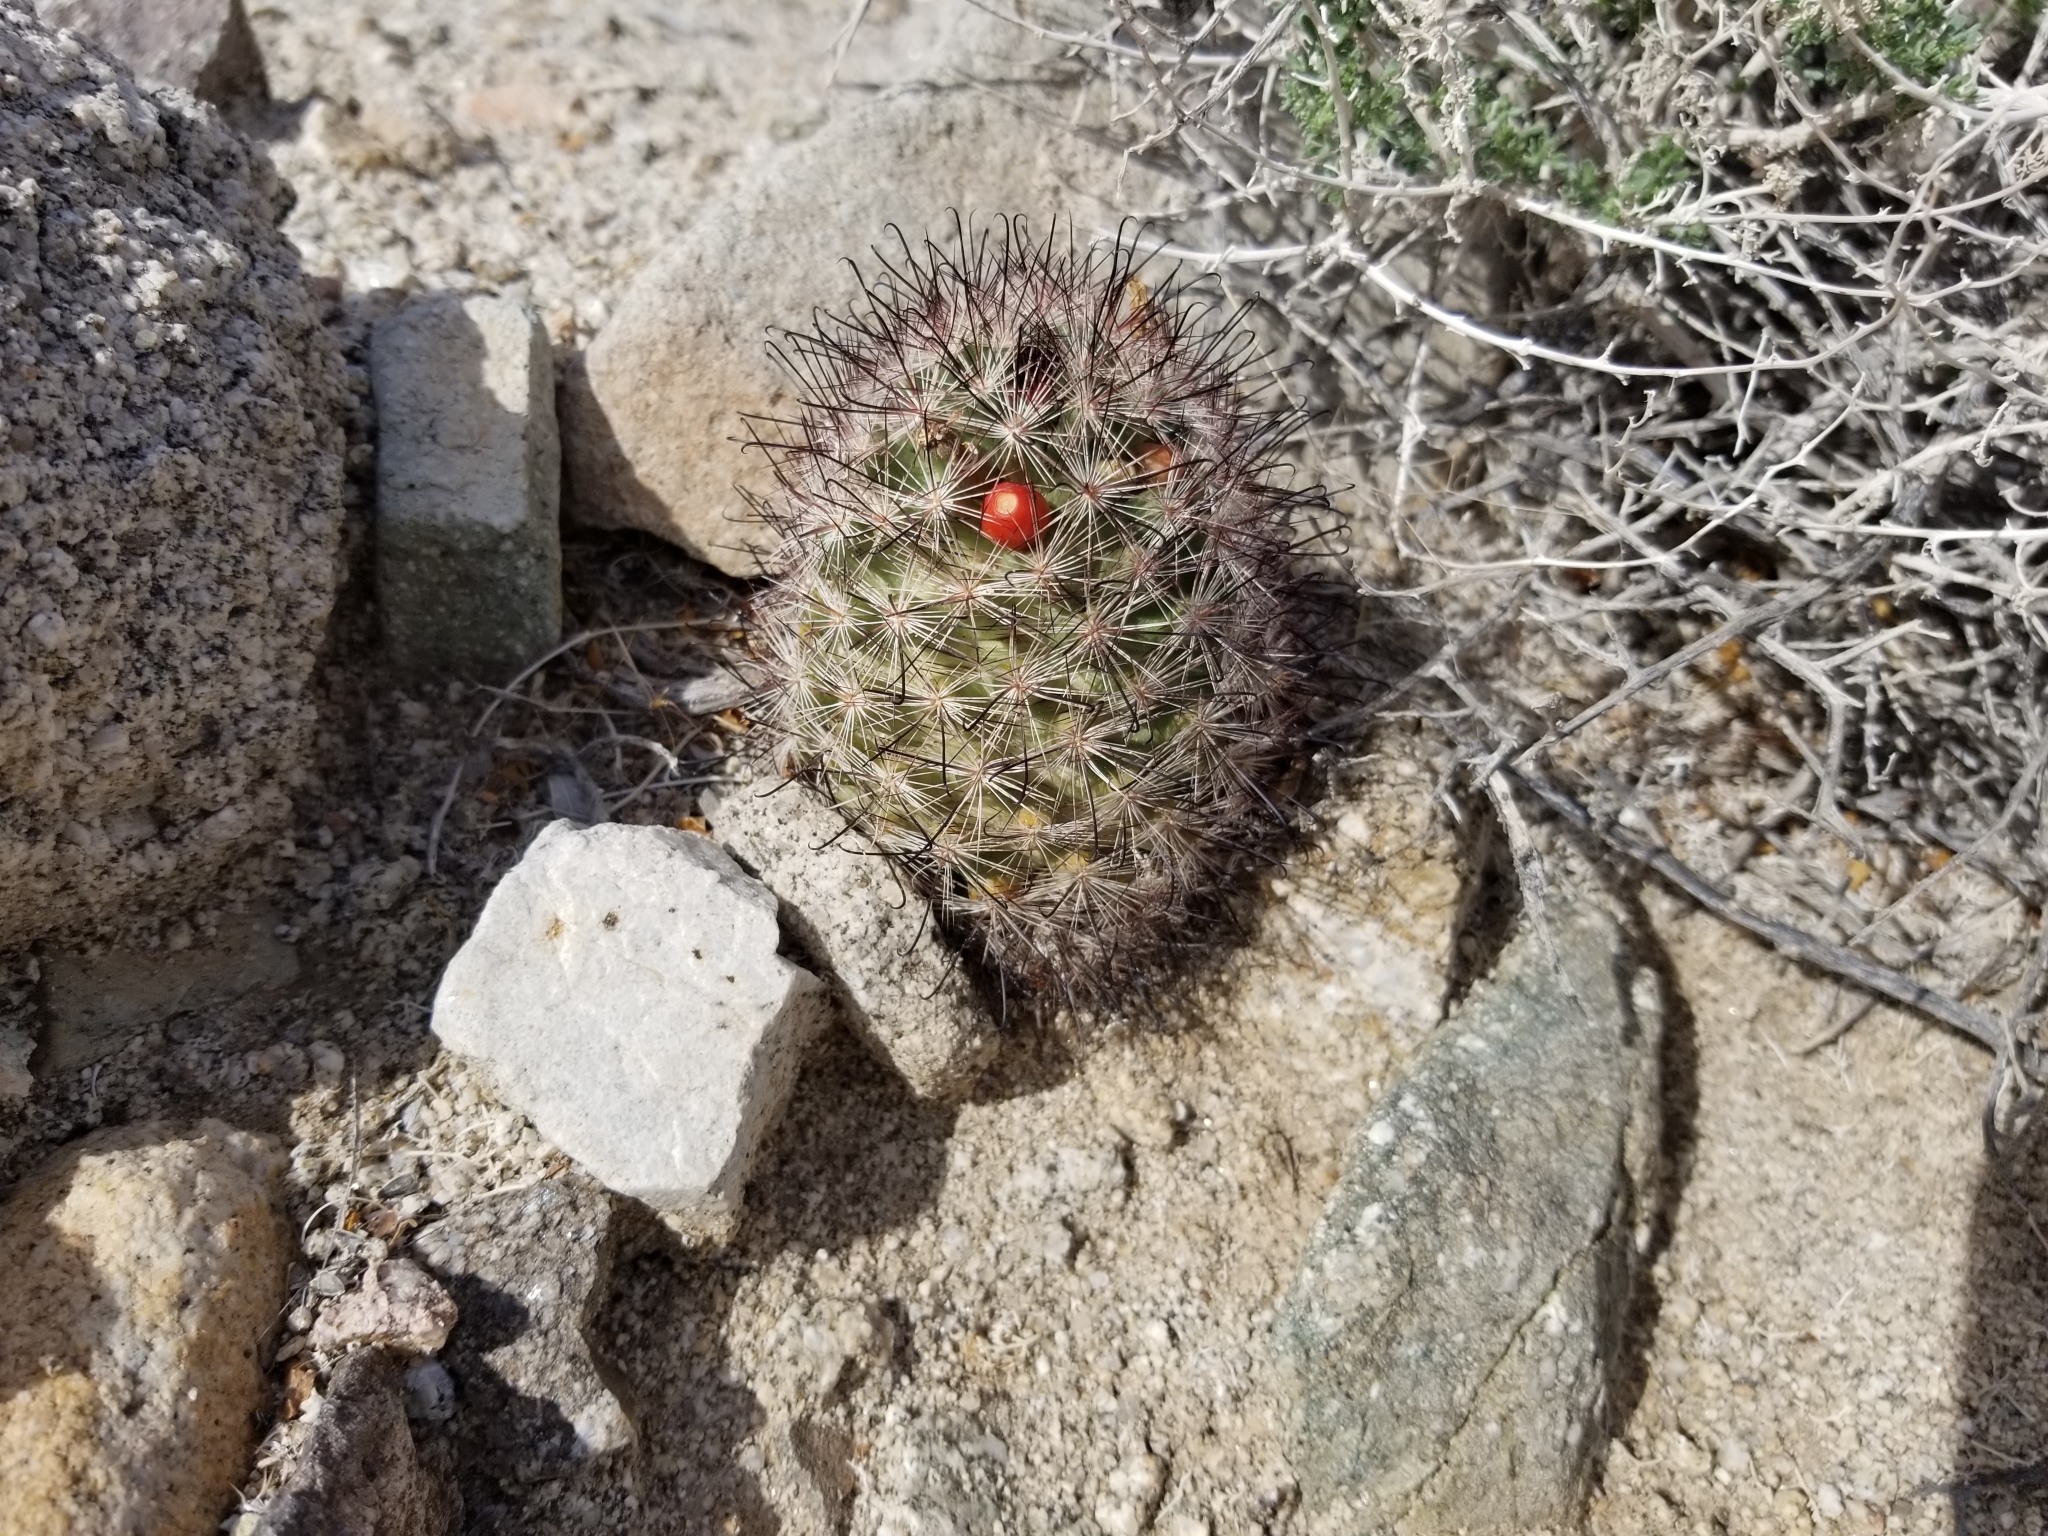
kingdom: Plantae
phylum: Tracheophyta
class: Magnoliopsida
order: Caryophyllales
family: Cactaceae
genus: Cochemiea
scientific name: Cochemiea tetrancistra
